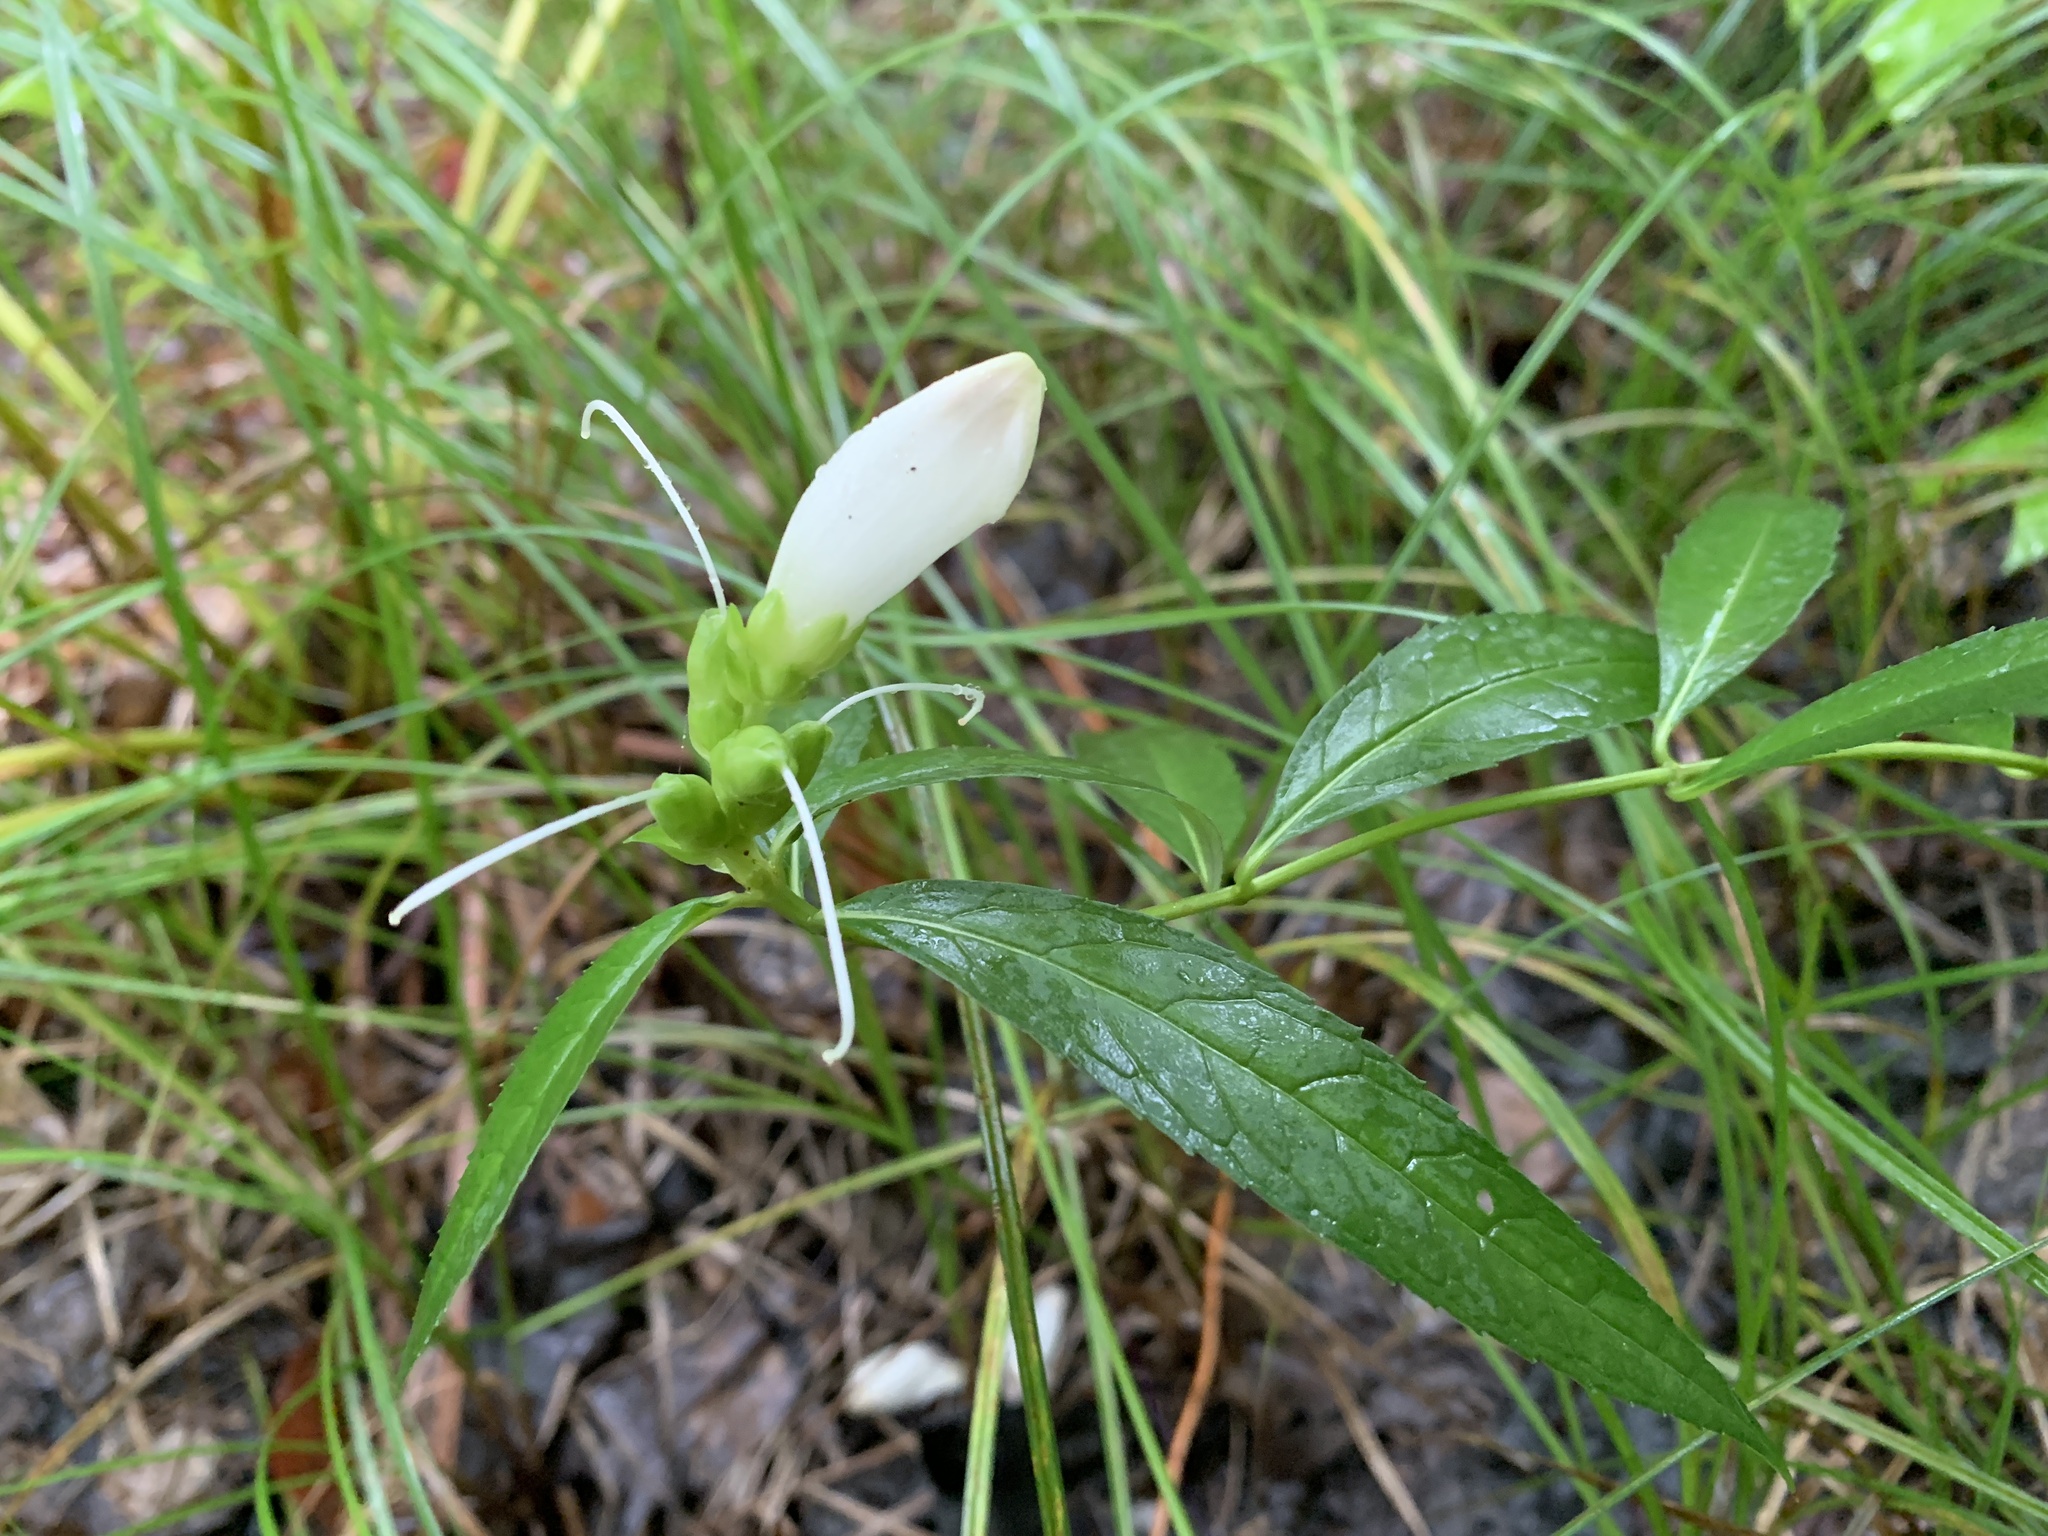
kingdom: Plantae
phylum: Tracheophyta
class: Magnoliopsida
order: Lamiales
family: Plantaginaceae
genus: Chelone
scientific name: Chelone glabra
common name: Snakehead
